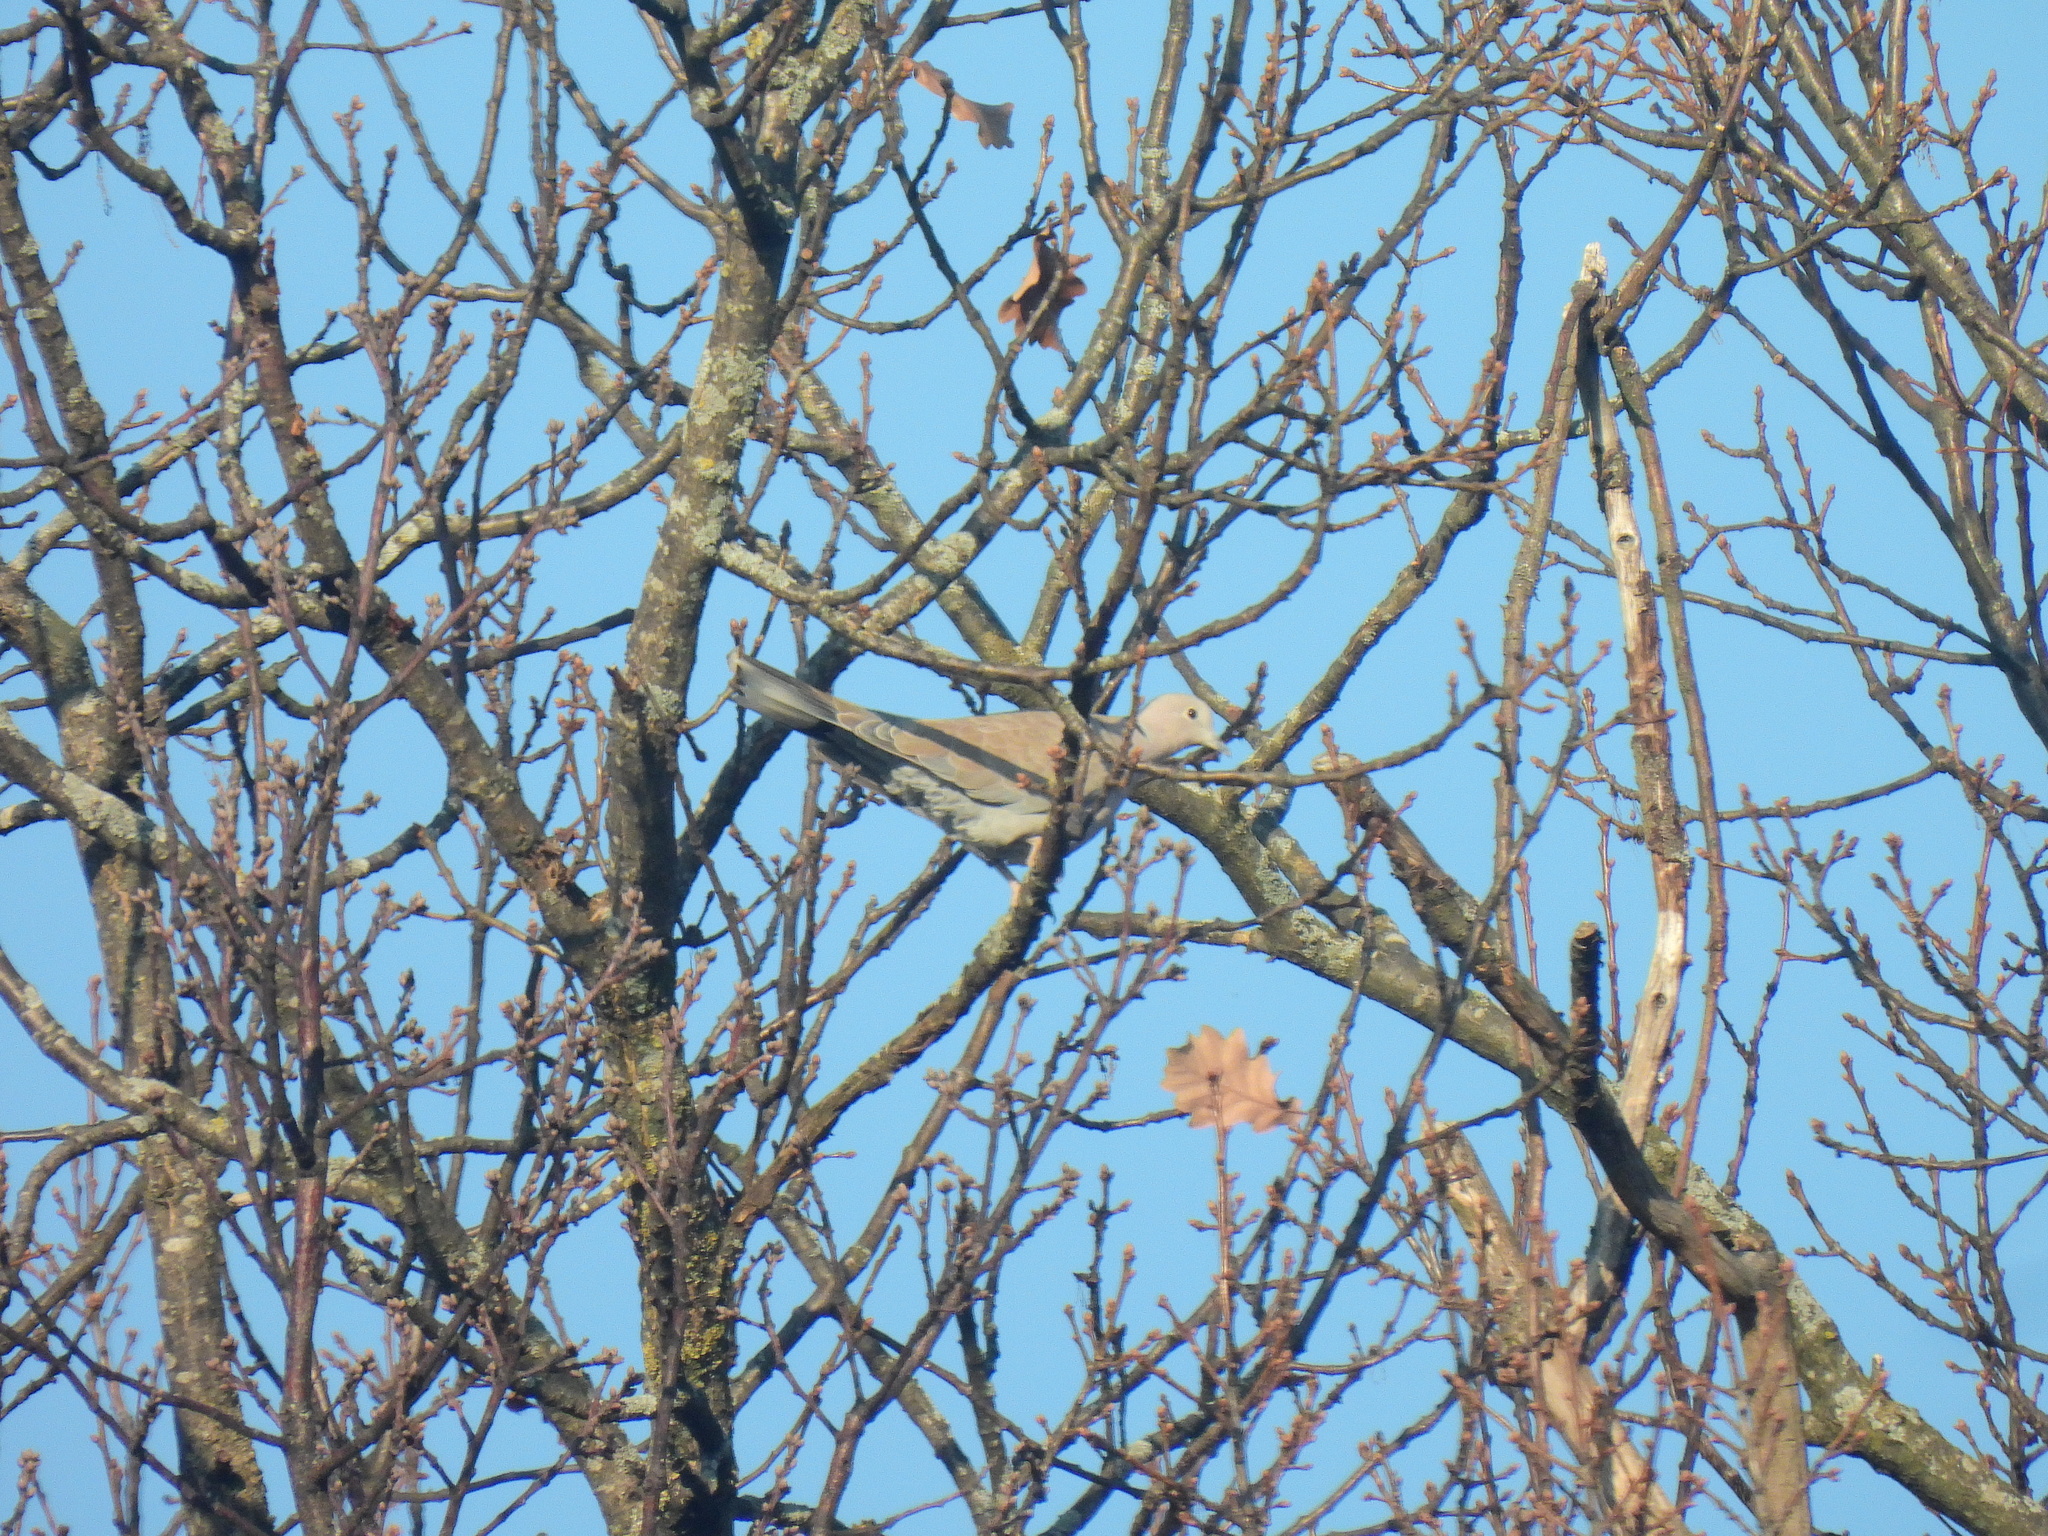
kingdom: Animalia
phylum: Chordata
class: Aves
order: Columbiformes
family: Columbidae
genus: Streptopelia
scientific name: Streptopelia decaocto
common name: Eurasian collared dove
